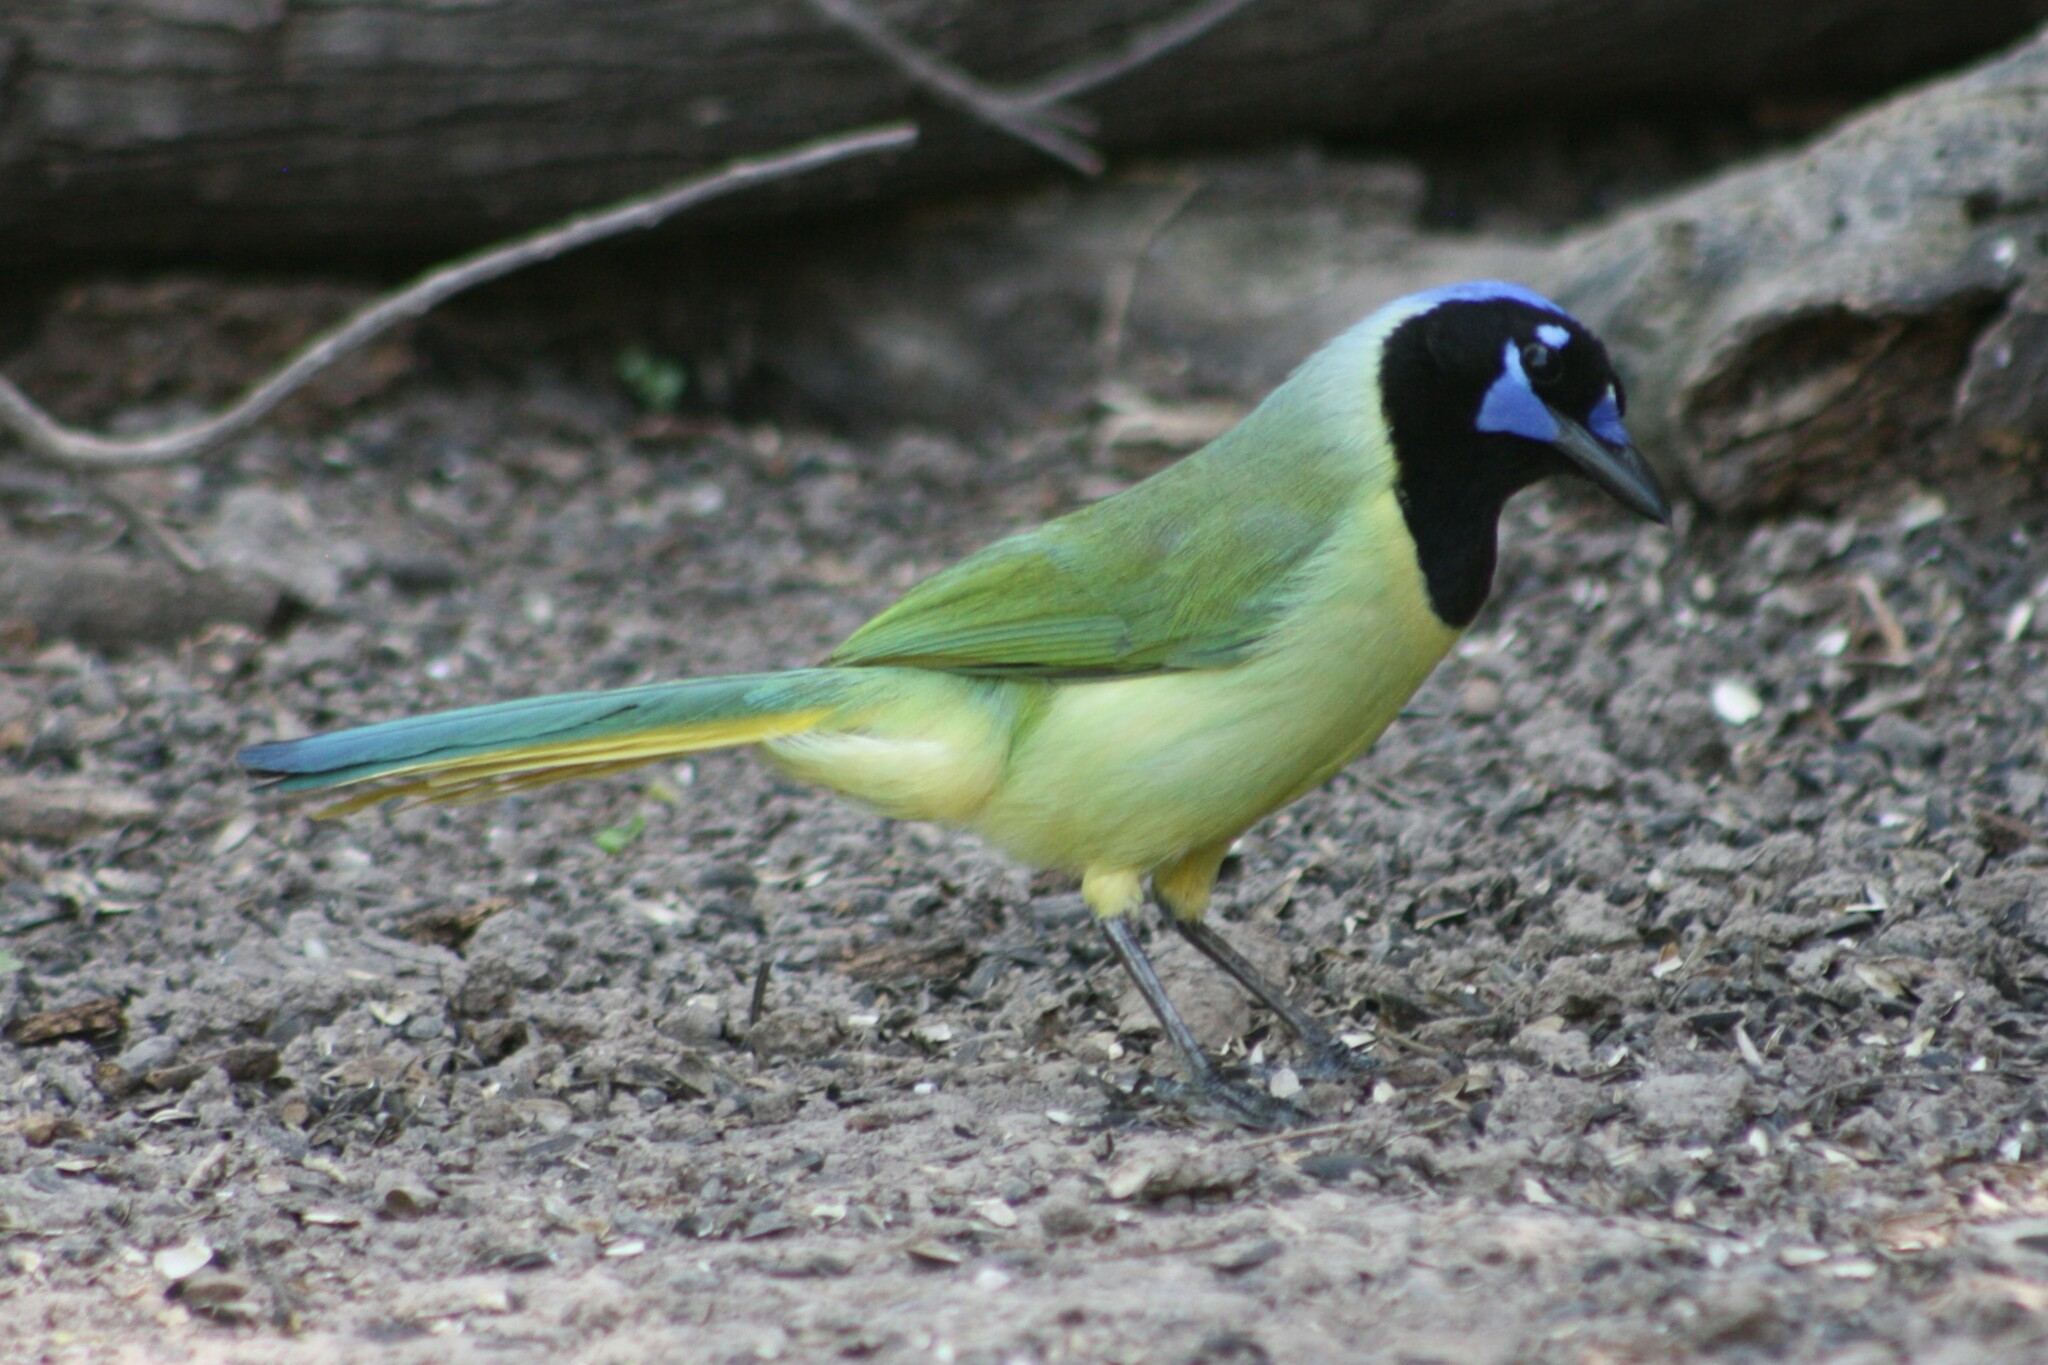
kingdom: Animalia
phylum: Chordata
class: Aves
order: Passeriformes
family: Corvidae
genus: Cyanocorax
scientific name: Cyanocorax yncas
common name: Green jay
